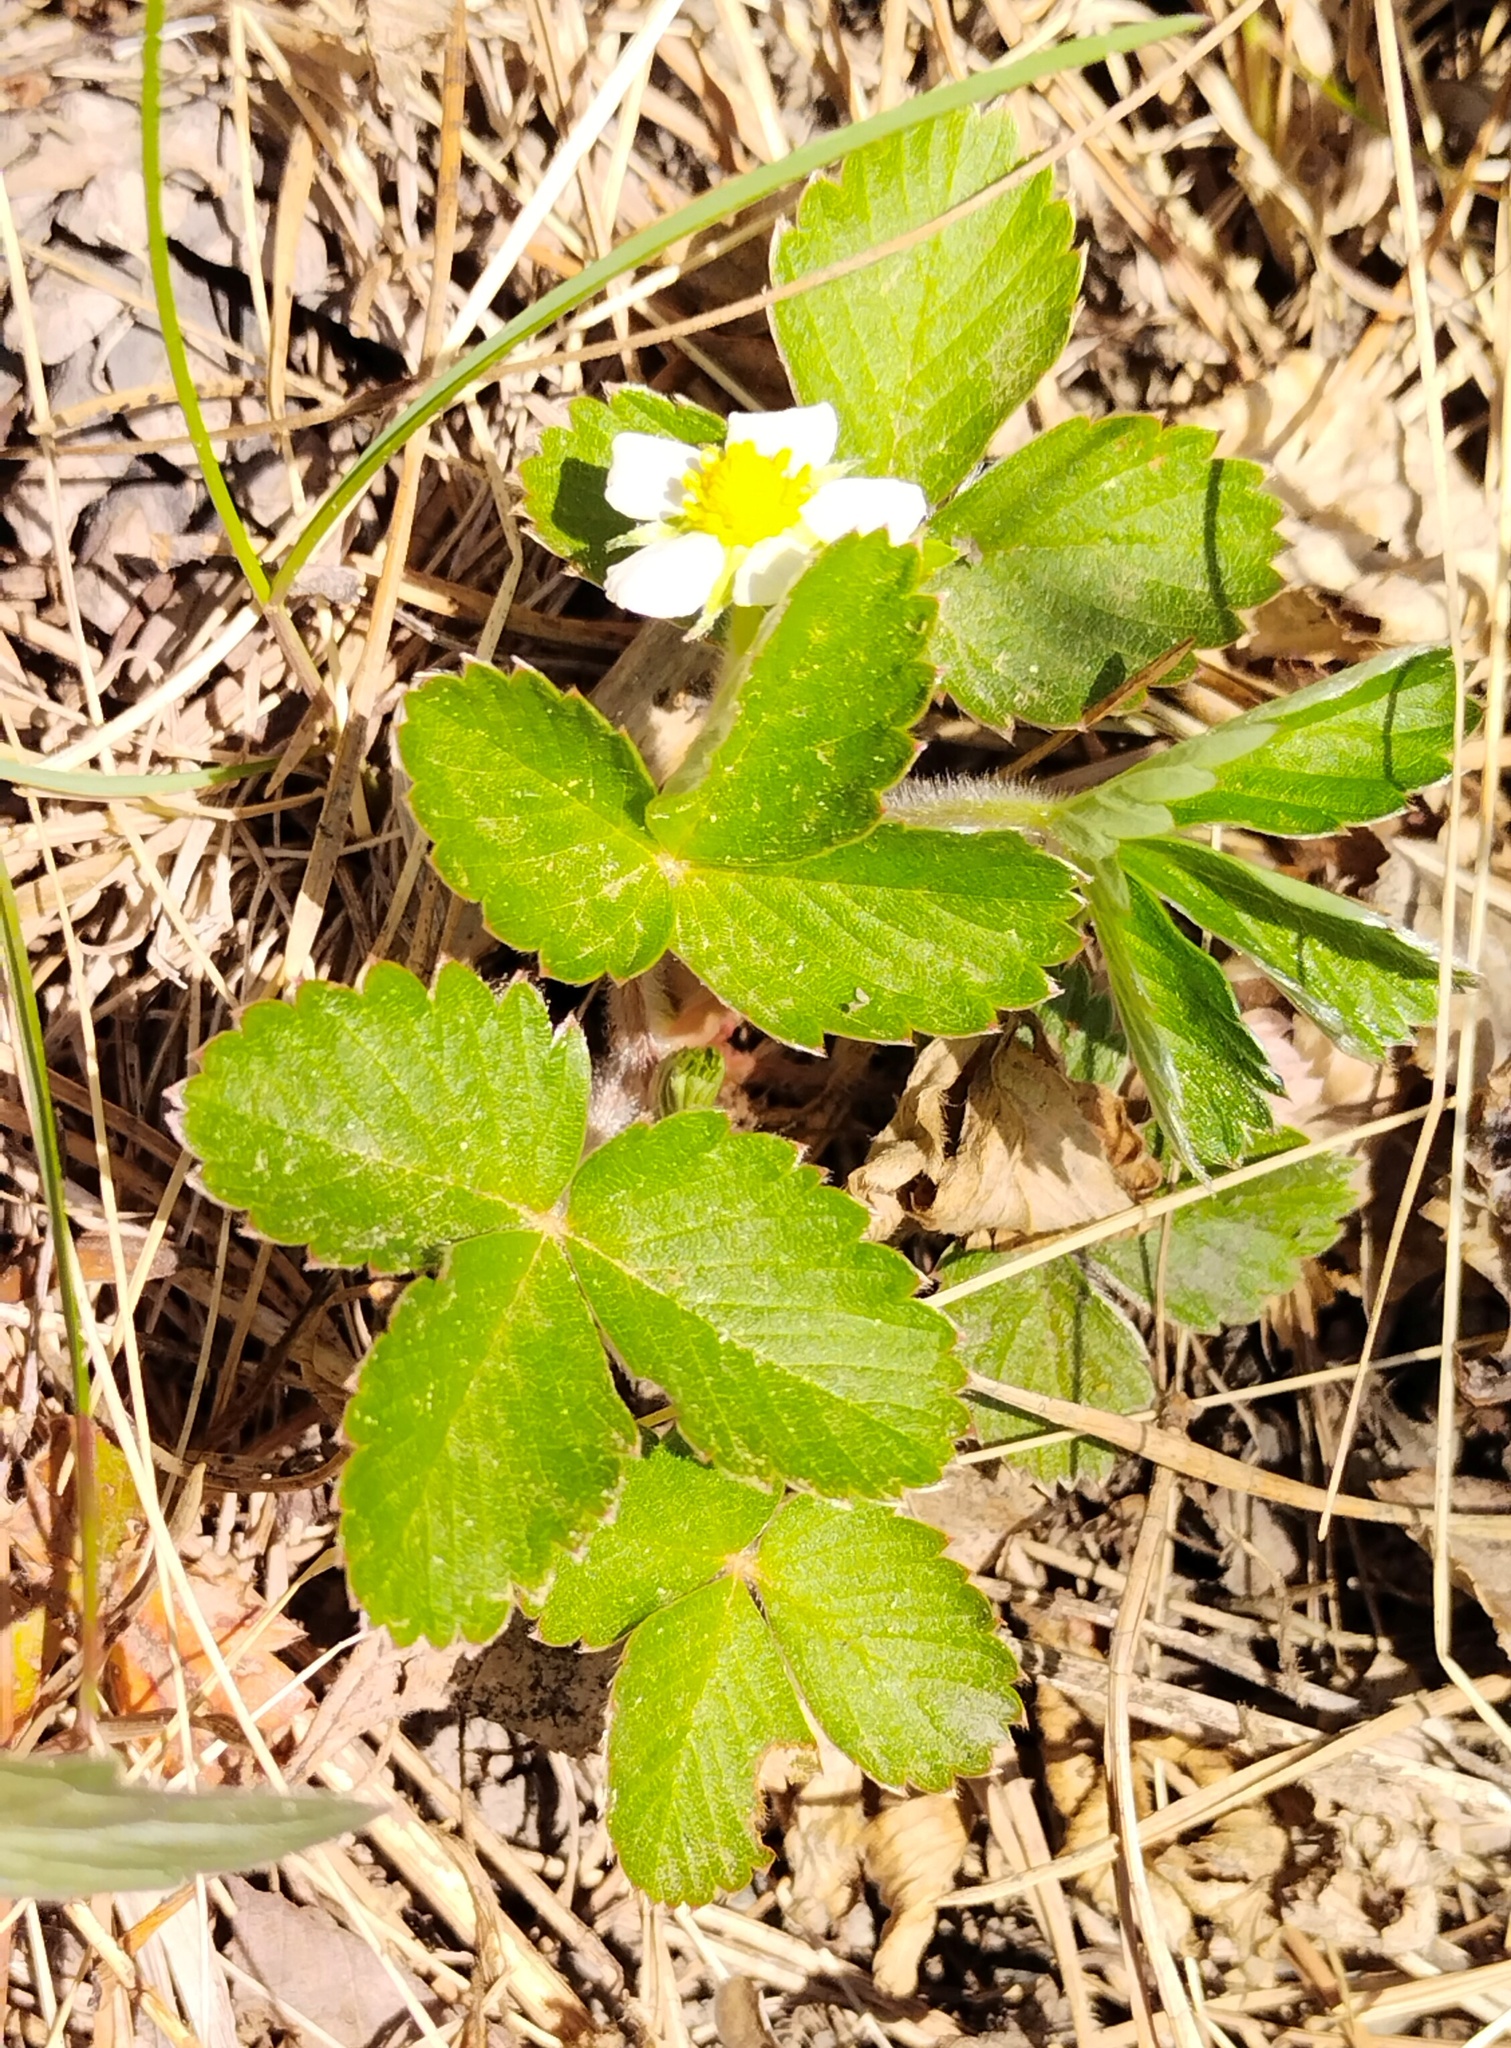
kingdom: Plantae
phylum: Tracheophyta
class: Magnoliopsida
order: Rosales
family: Rosaceae
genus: Fragaria
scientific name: Fragaria viridis
